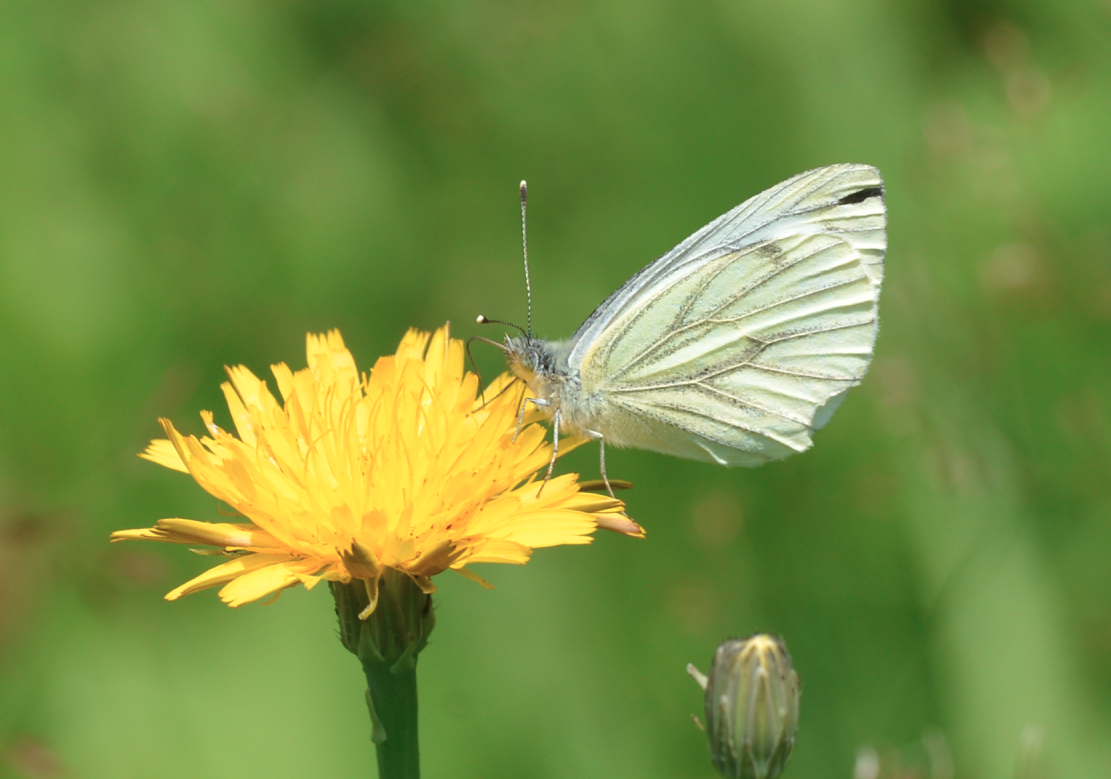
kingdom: Animalia
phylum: Arthropoda
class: Insecta
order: Lepidoptera
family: Pieridae
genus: Pieris
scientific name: Pieris napi
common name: Green-veined white
